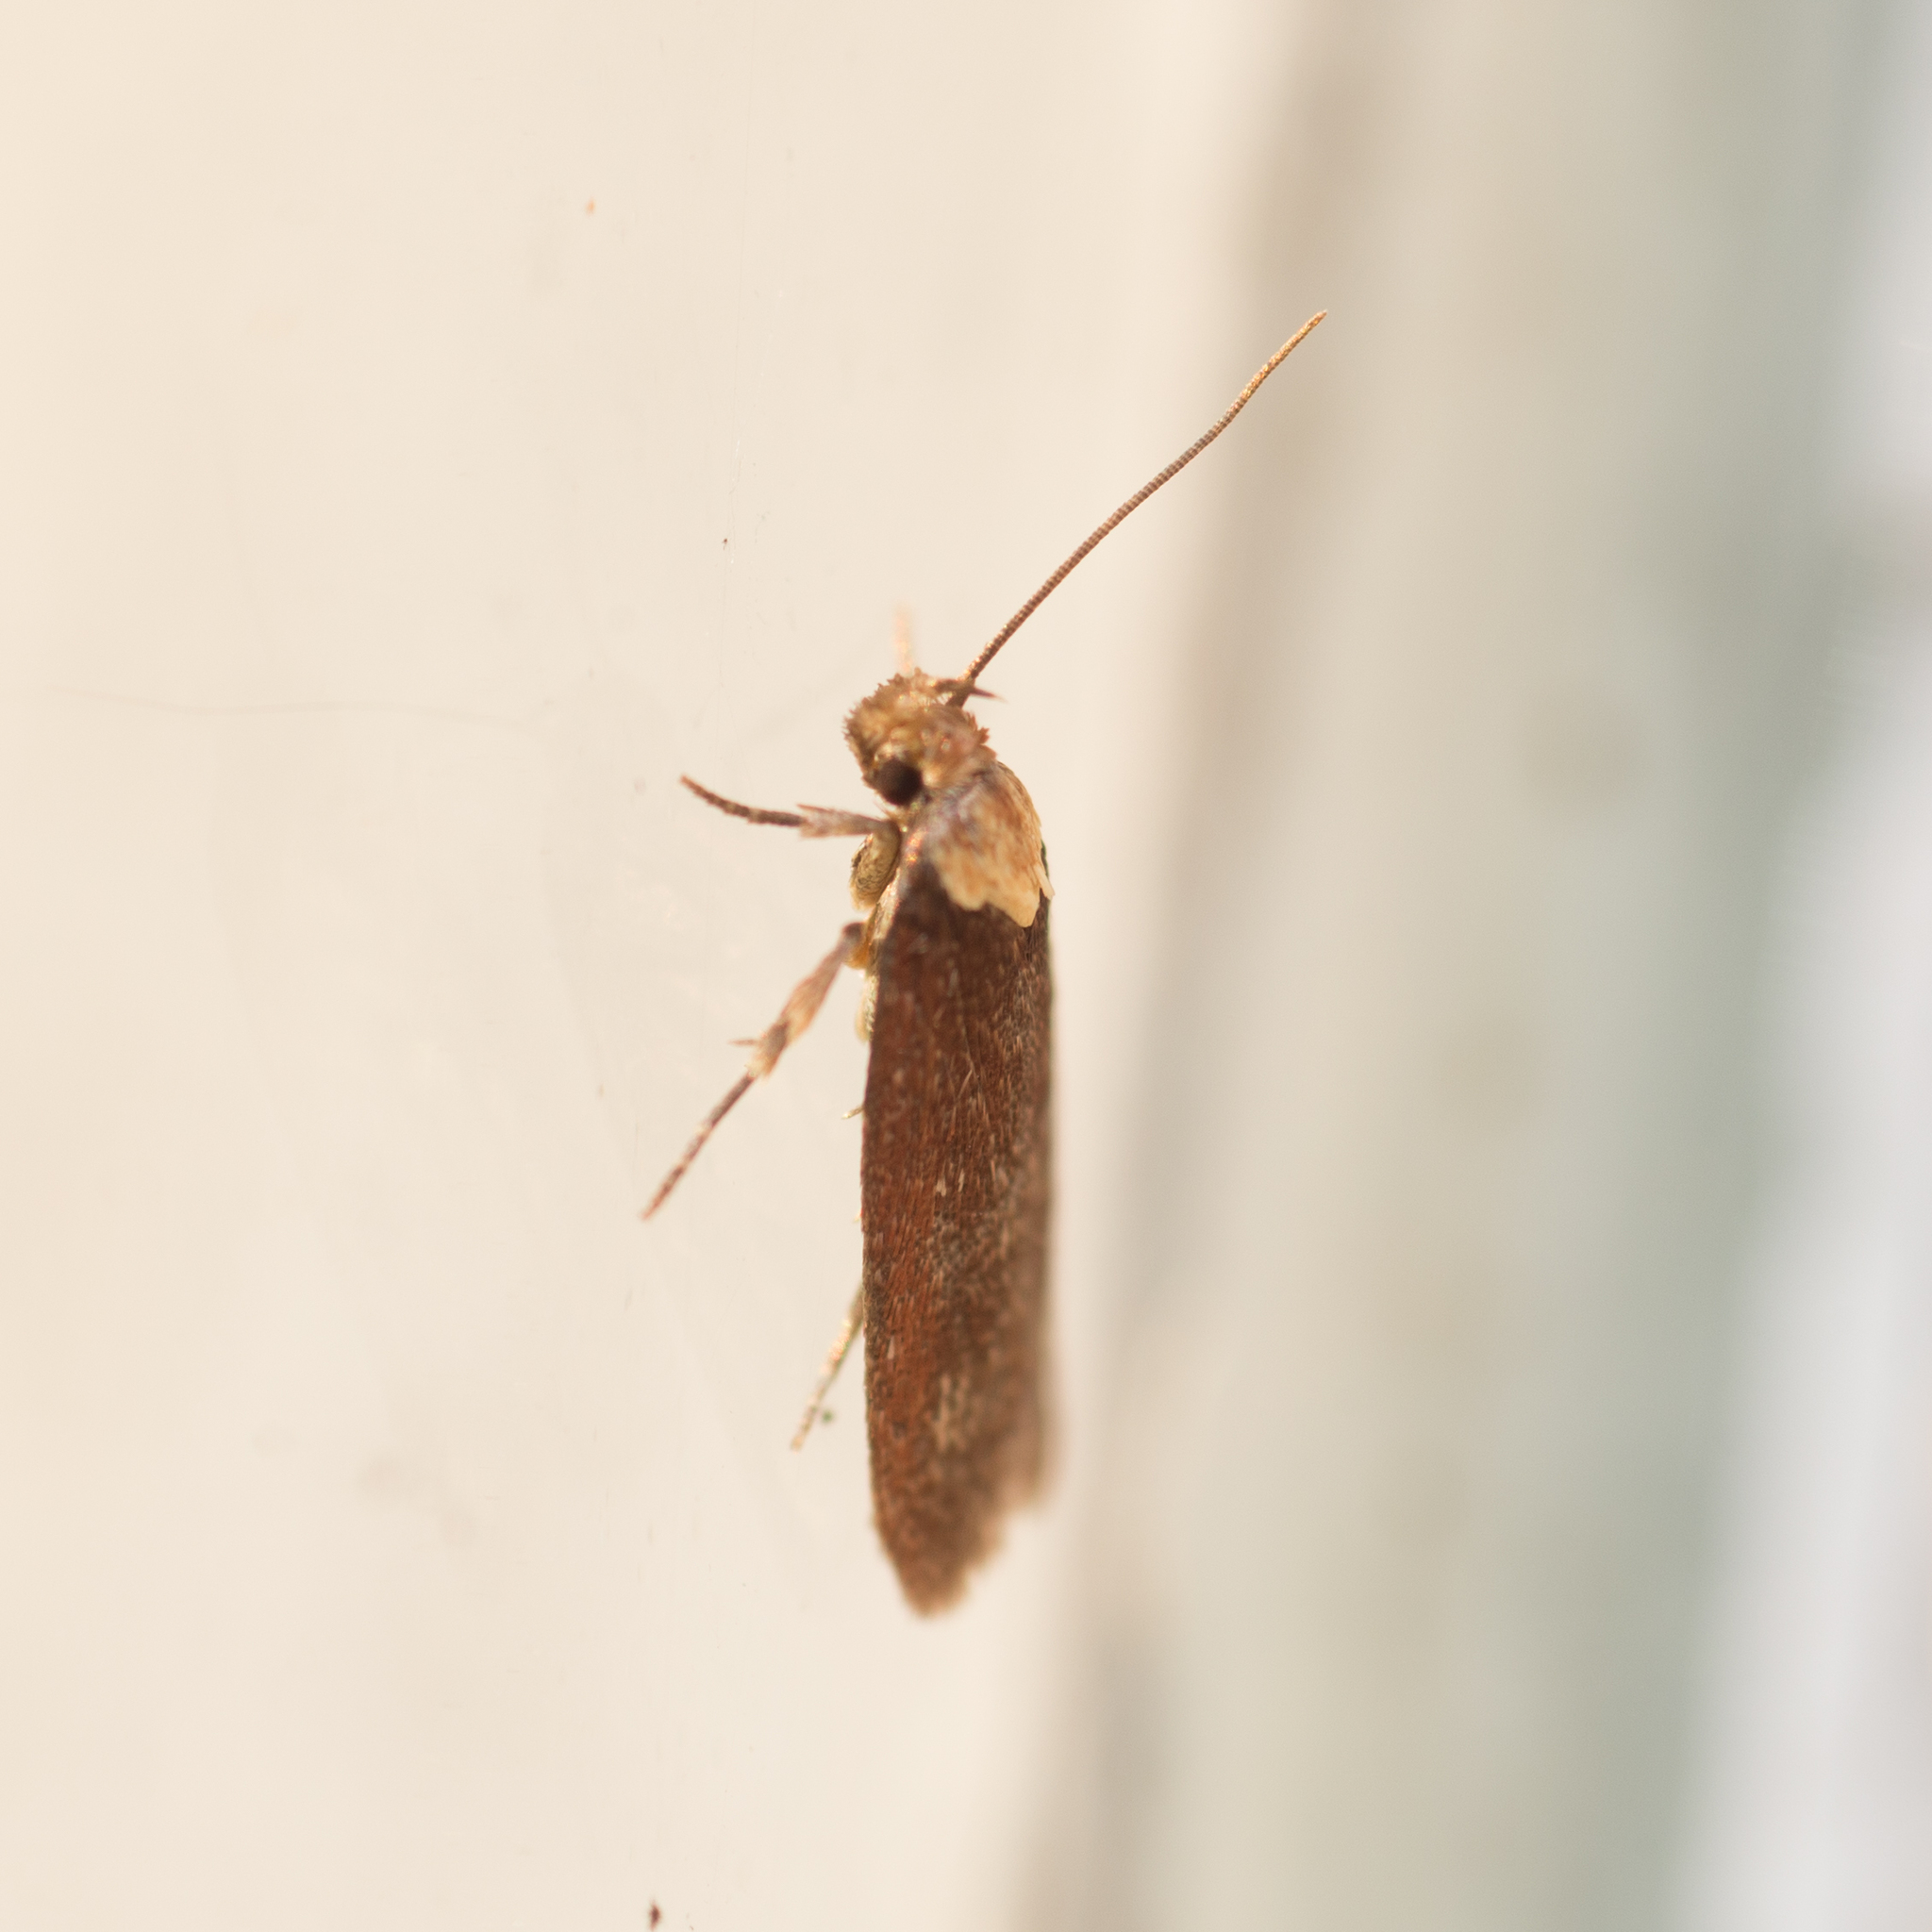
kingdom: Animalia
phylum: Arthropoda
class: Insecta
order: Lepidoptera
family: Depressariidae
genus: Depressaria
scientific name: Depressaria depressana
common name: Lost flat-body
